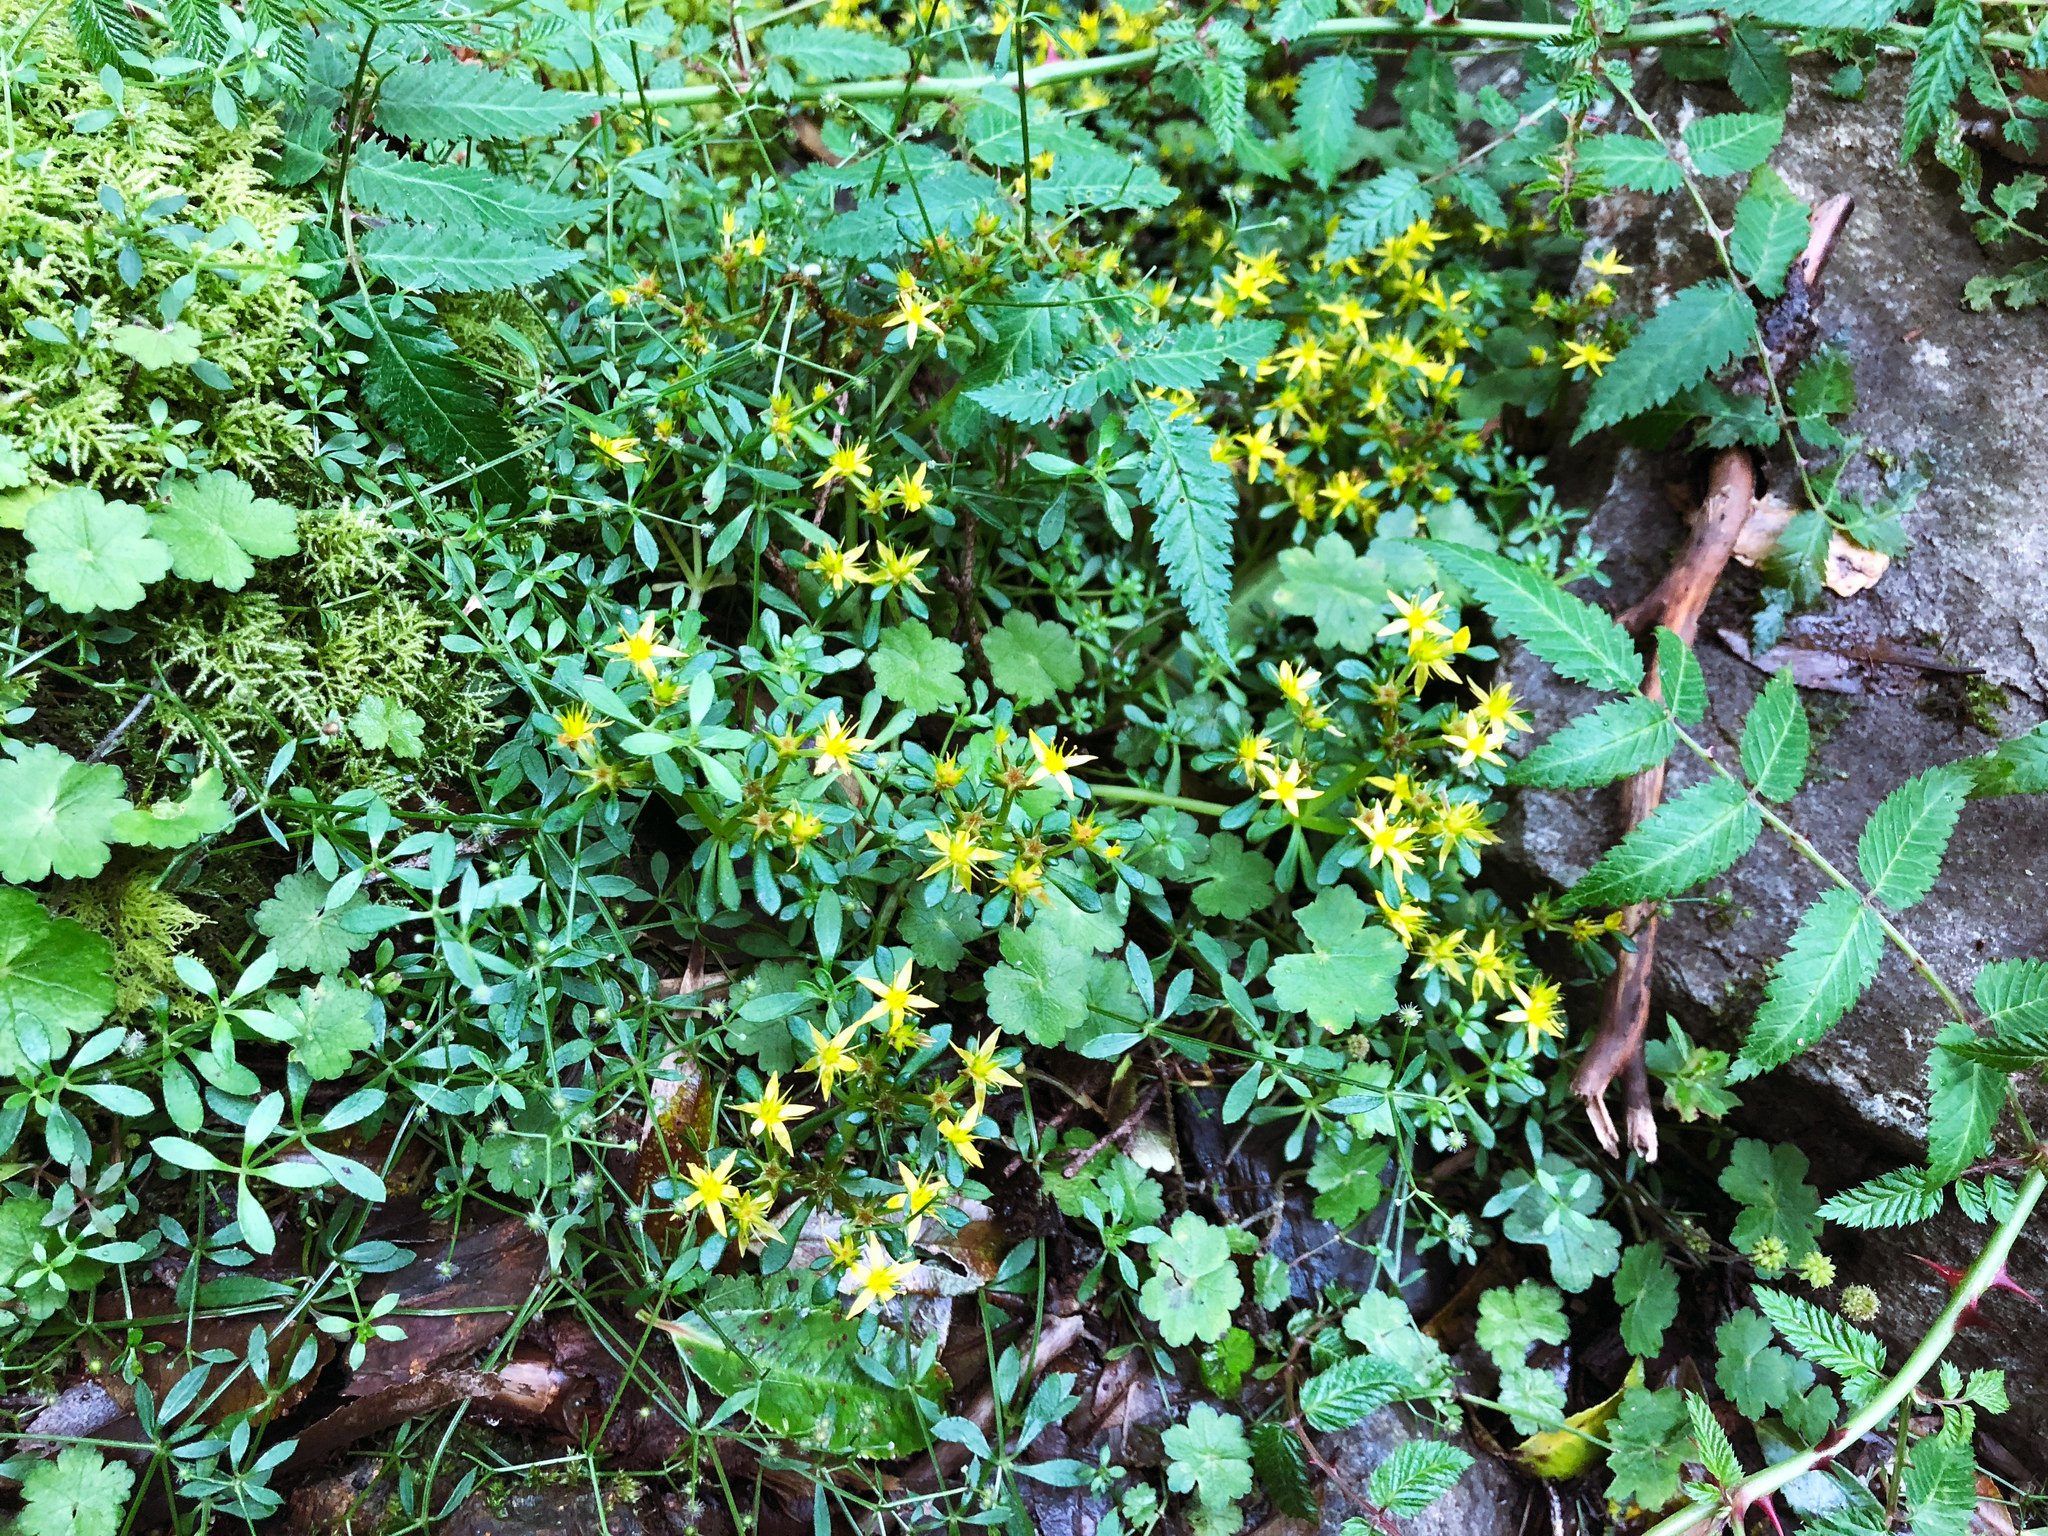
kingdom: Plantae
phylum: Tracheophyta
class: Magnoliopsida
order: Saxifragales
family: Crassulaceae
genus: Sedum
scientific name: Sedum actinocarpum
